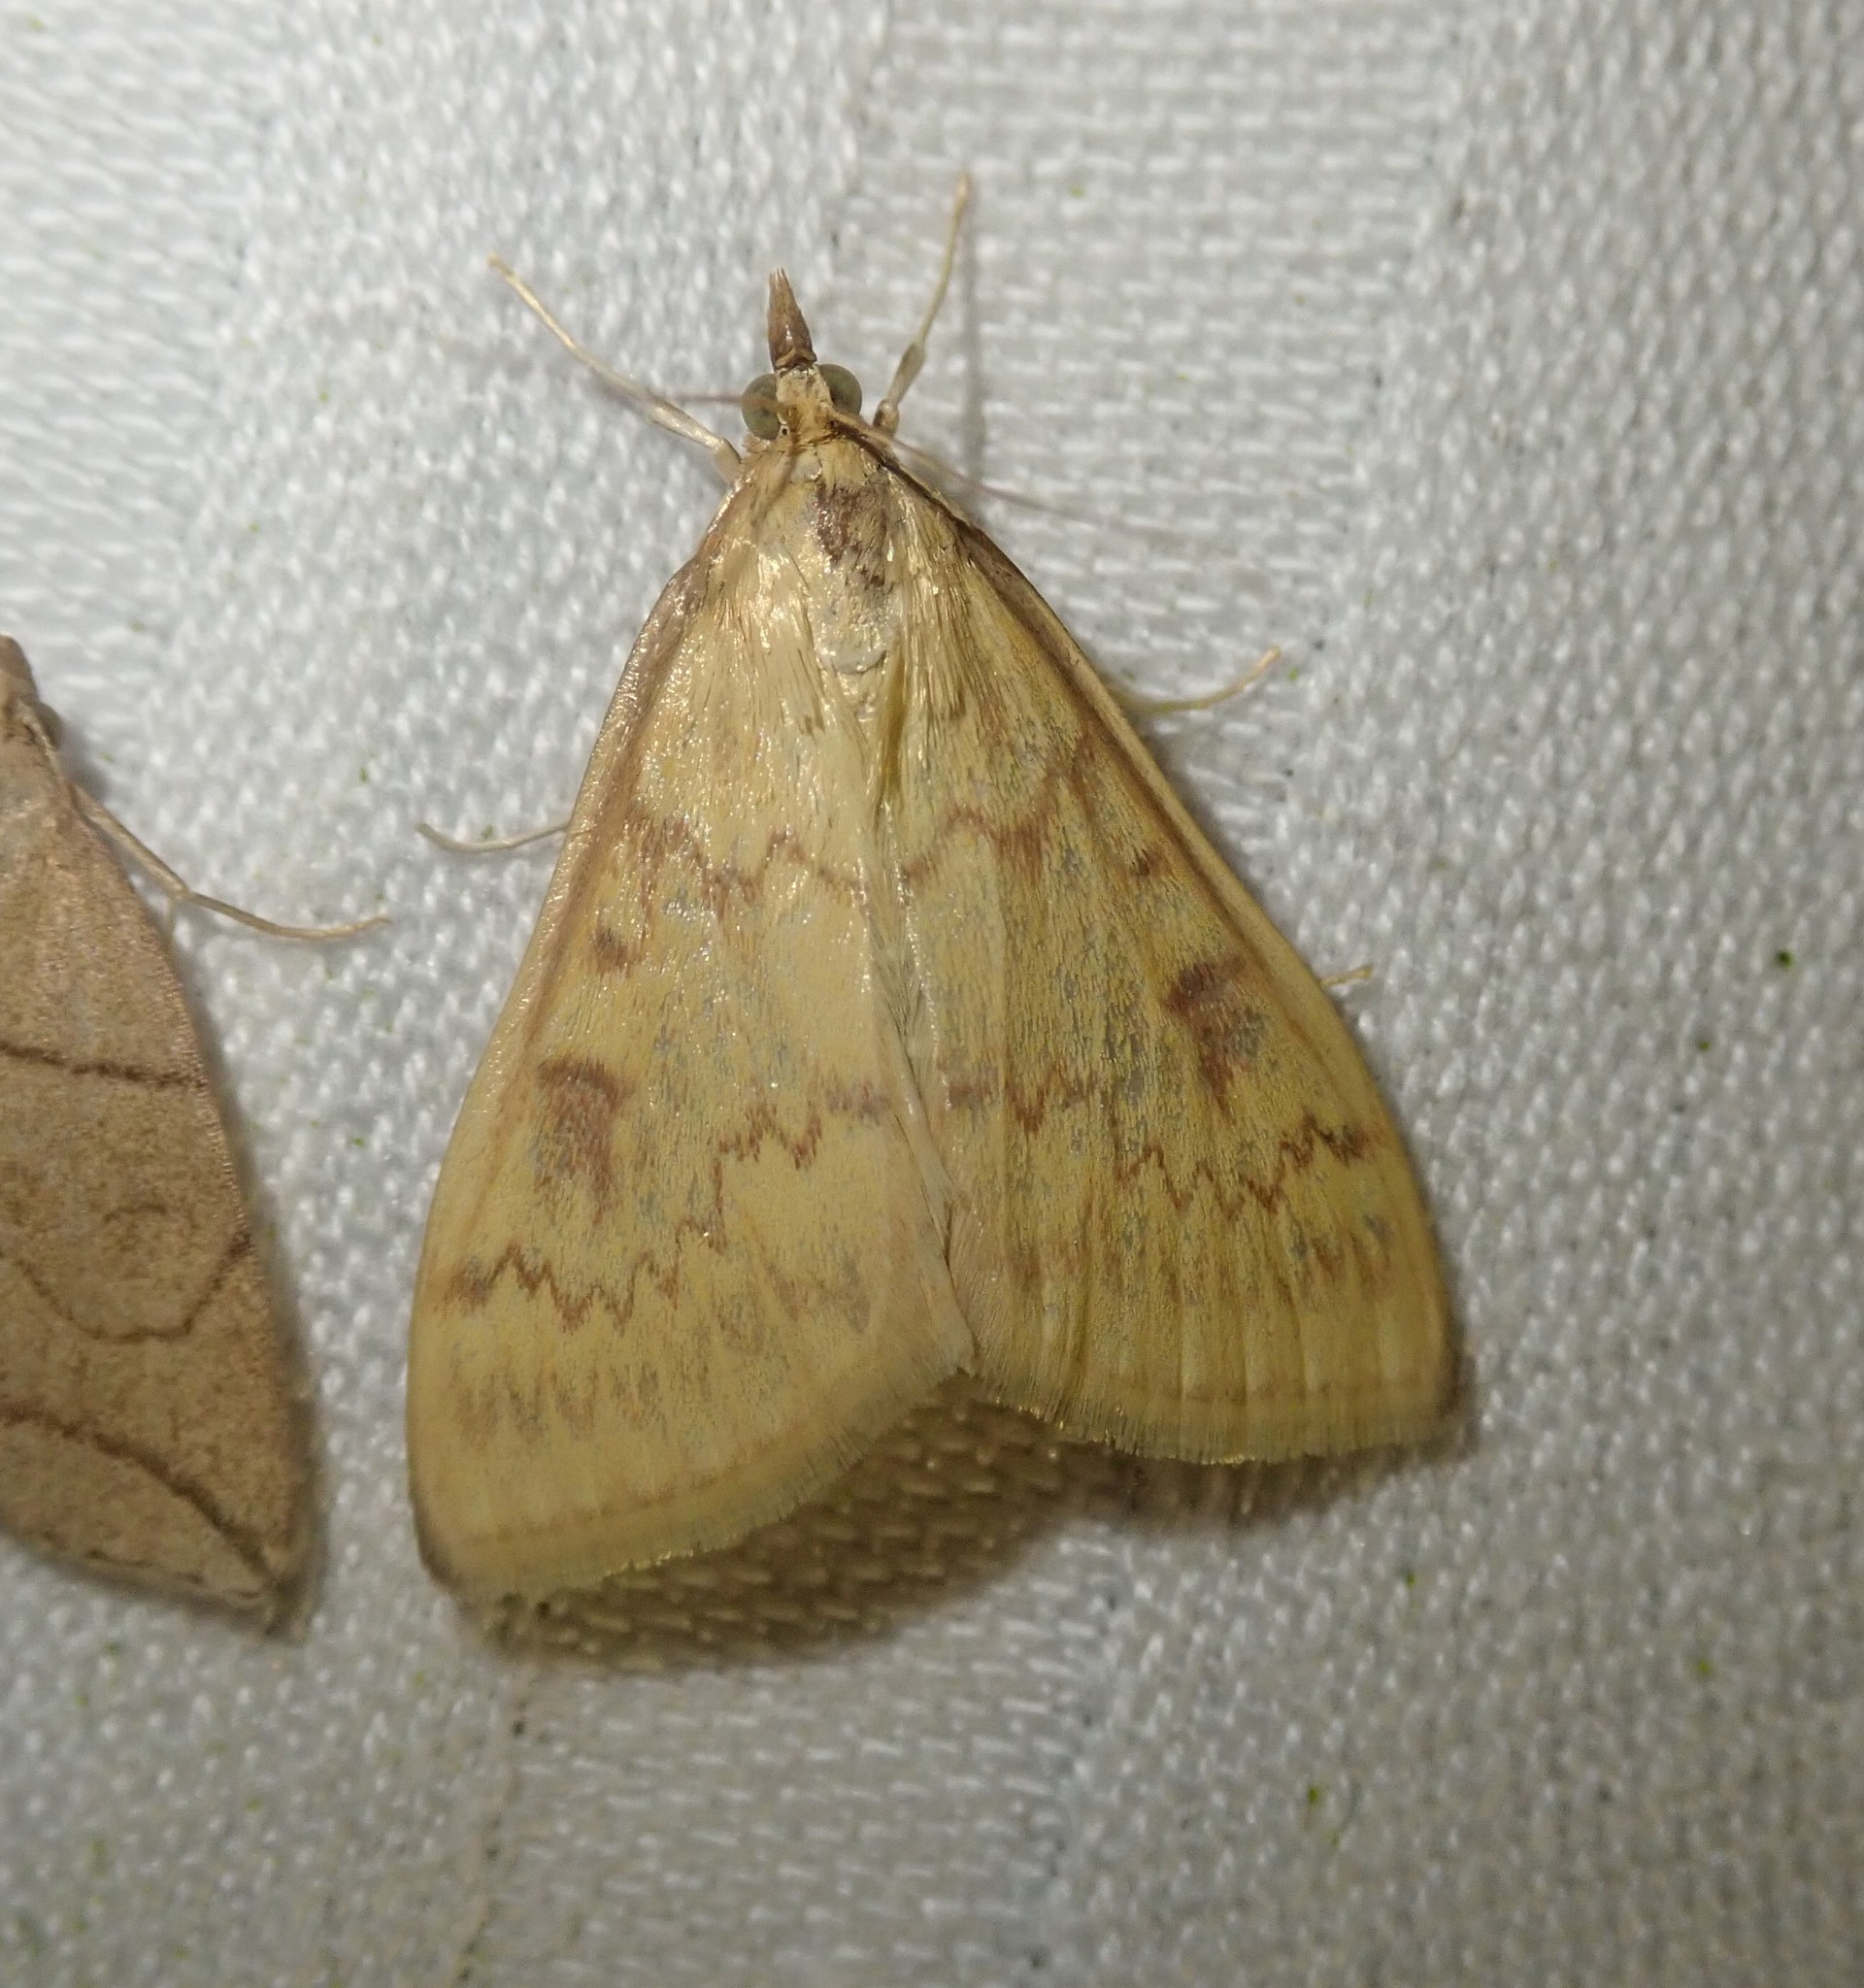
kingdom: Animalia
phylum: Arthropoda
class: Insecta
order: Lepidoptera
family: Crambidae
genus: Ostrinia
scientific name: Ostrinia nubilalis
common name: European corn borer
